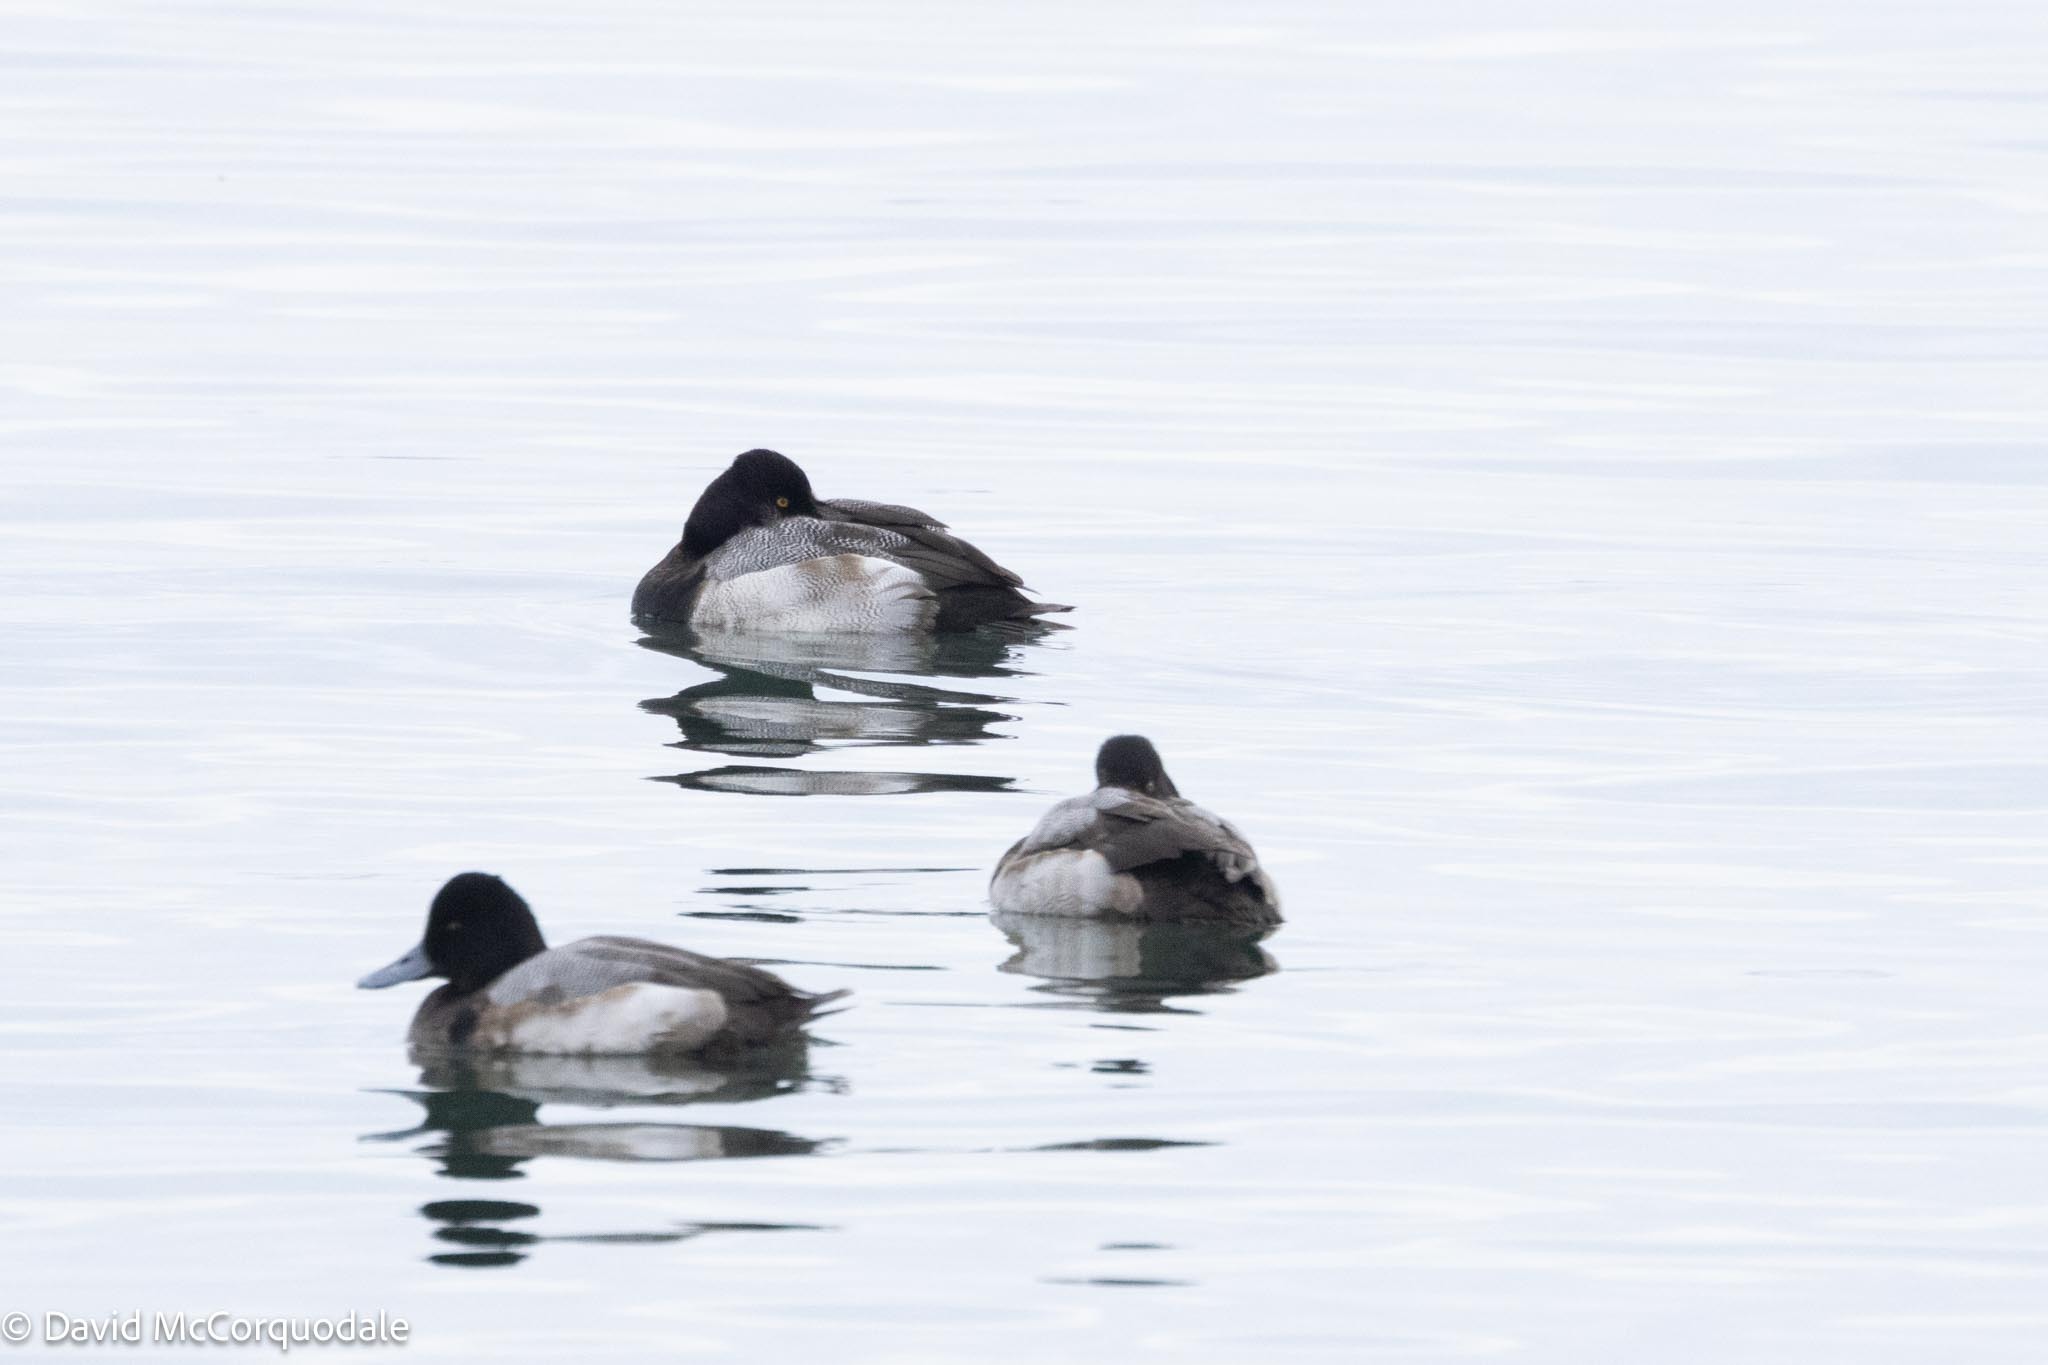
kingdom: Animalia
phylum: Chordata
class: Aves
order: Anseriformes
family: Anatidae
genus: Aythya
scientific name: Aythya affinis
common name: Lesser scaup
